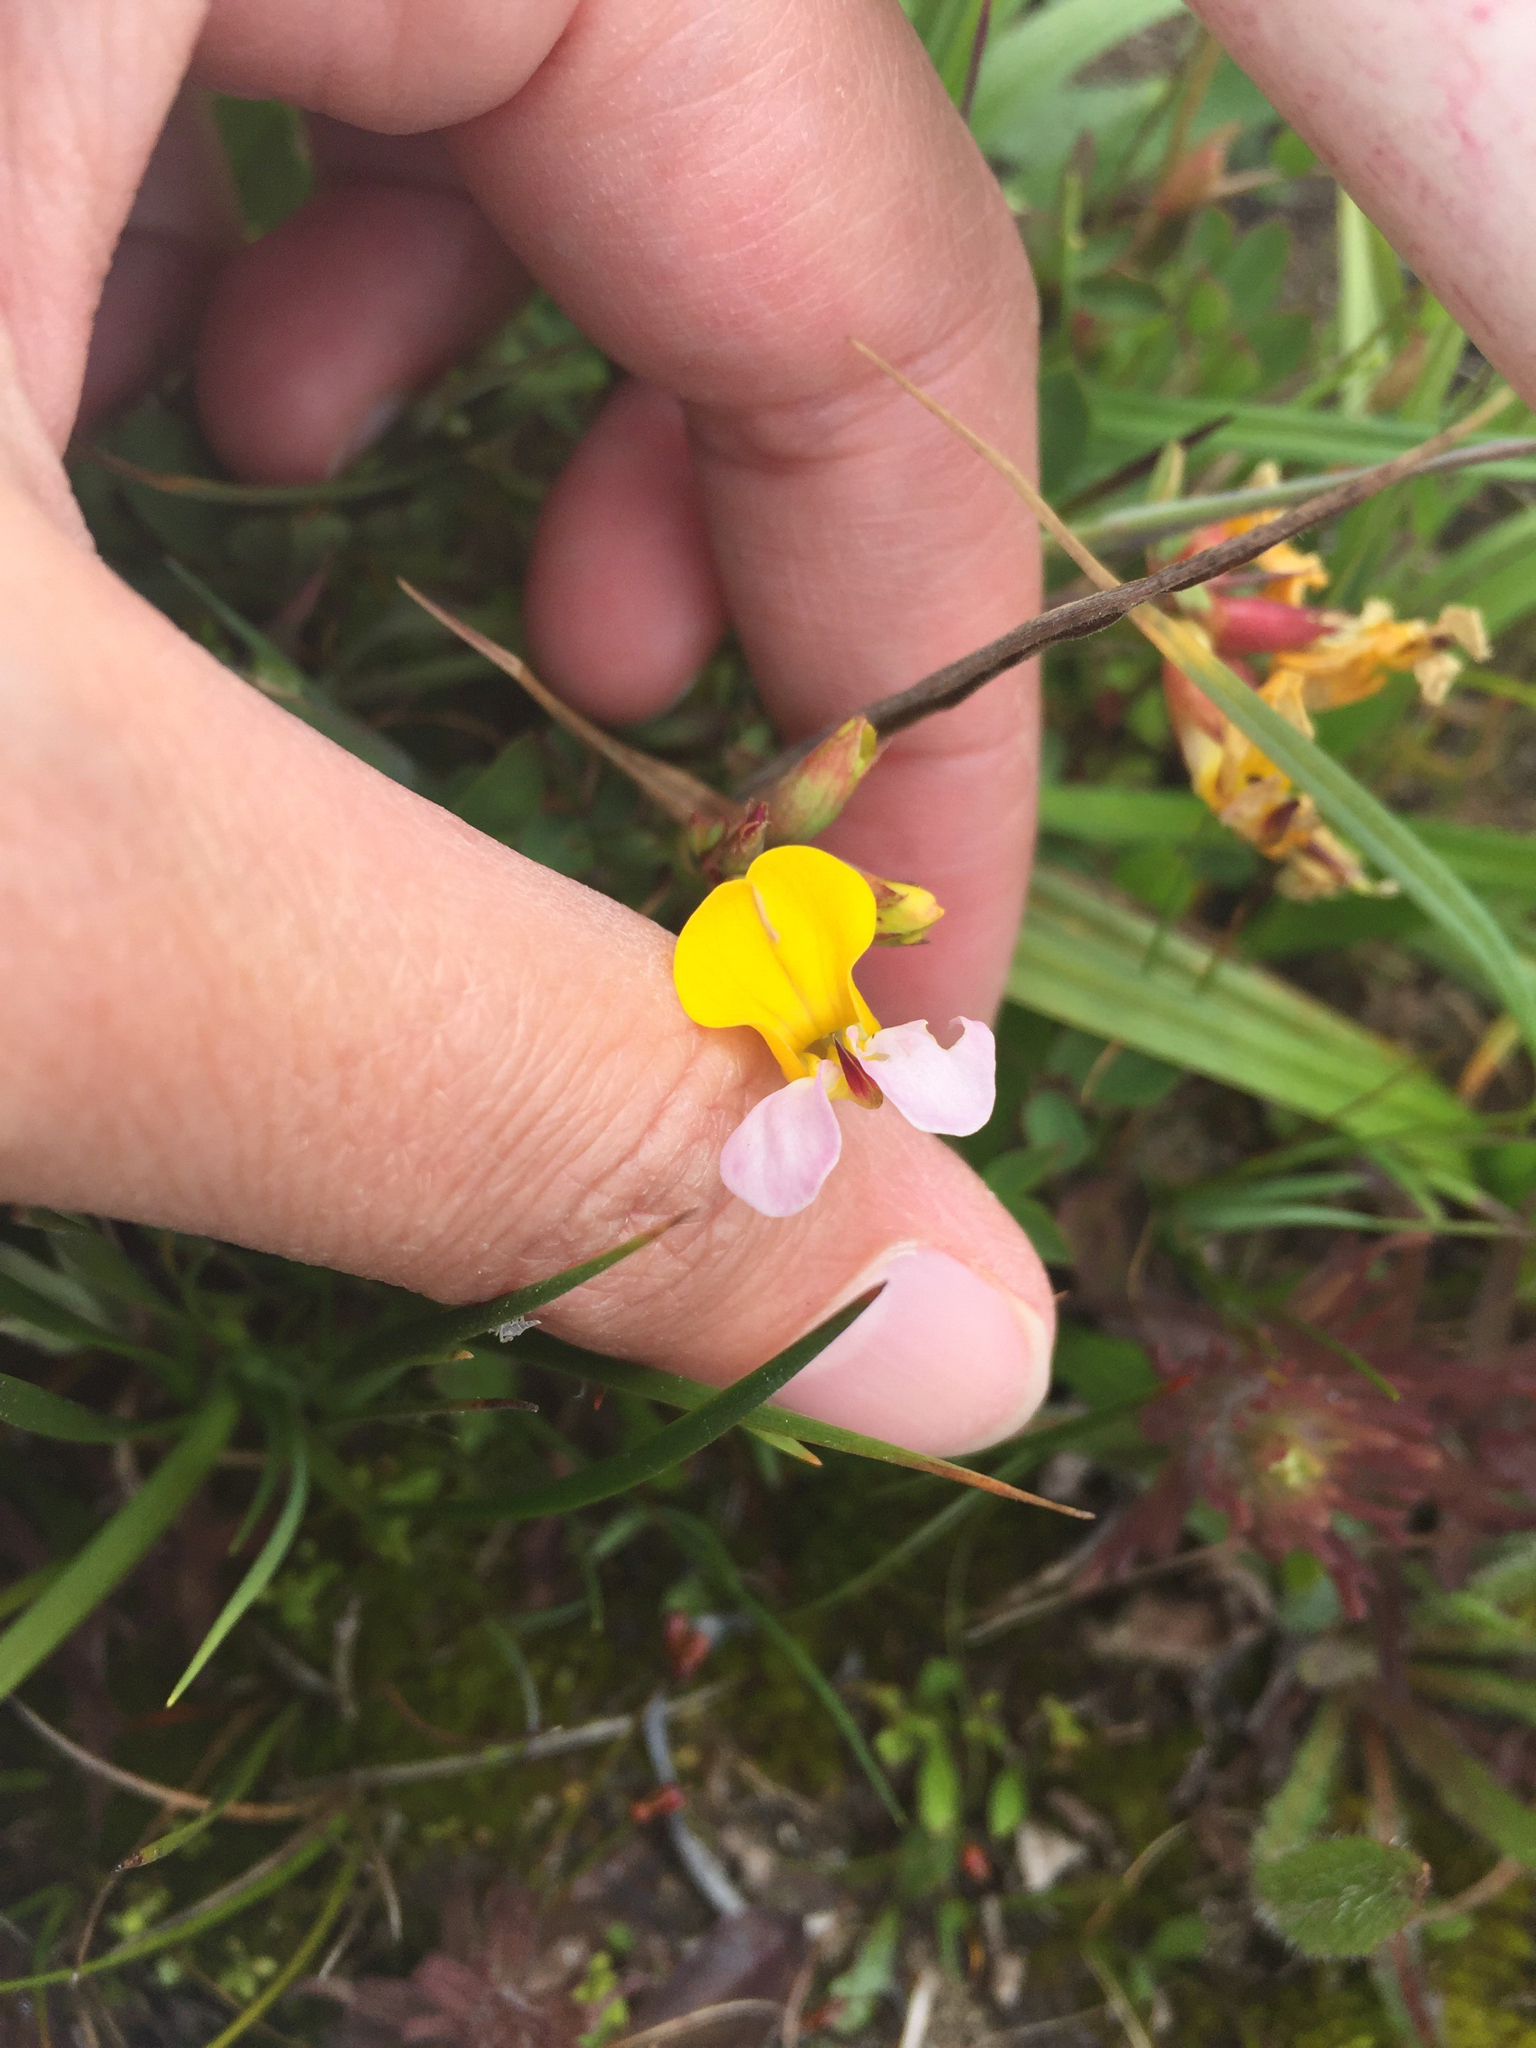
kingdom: Plantae
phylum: Tracheophyta
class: Magnoliopsida
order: Fabales
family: Fabaceae
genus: Hosackia
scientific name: Hosackia gracilis
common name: Seaside bird's-foot lotus
